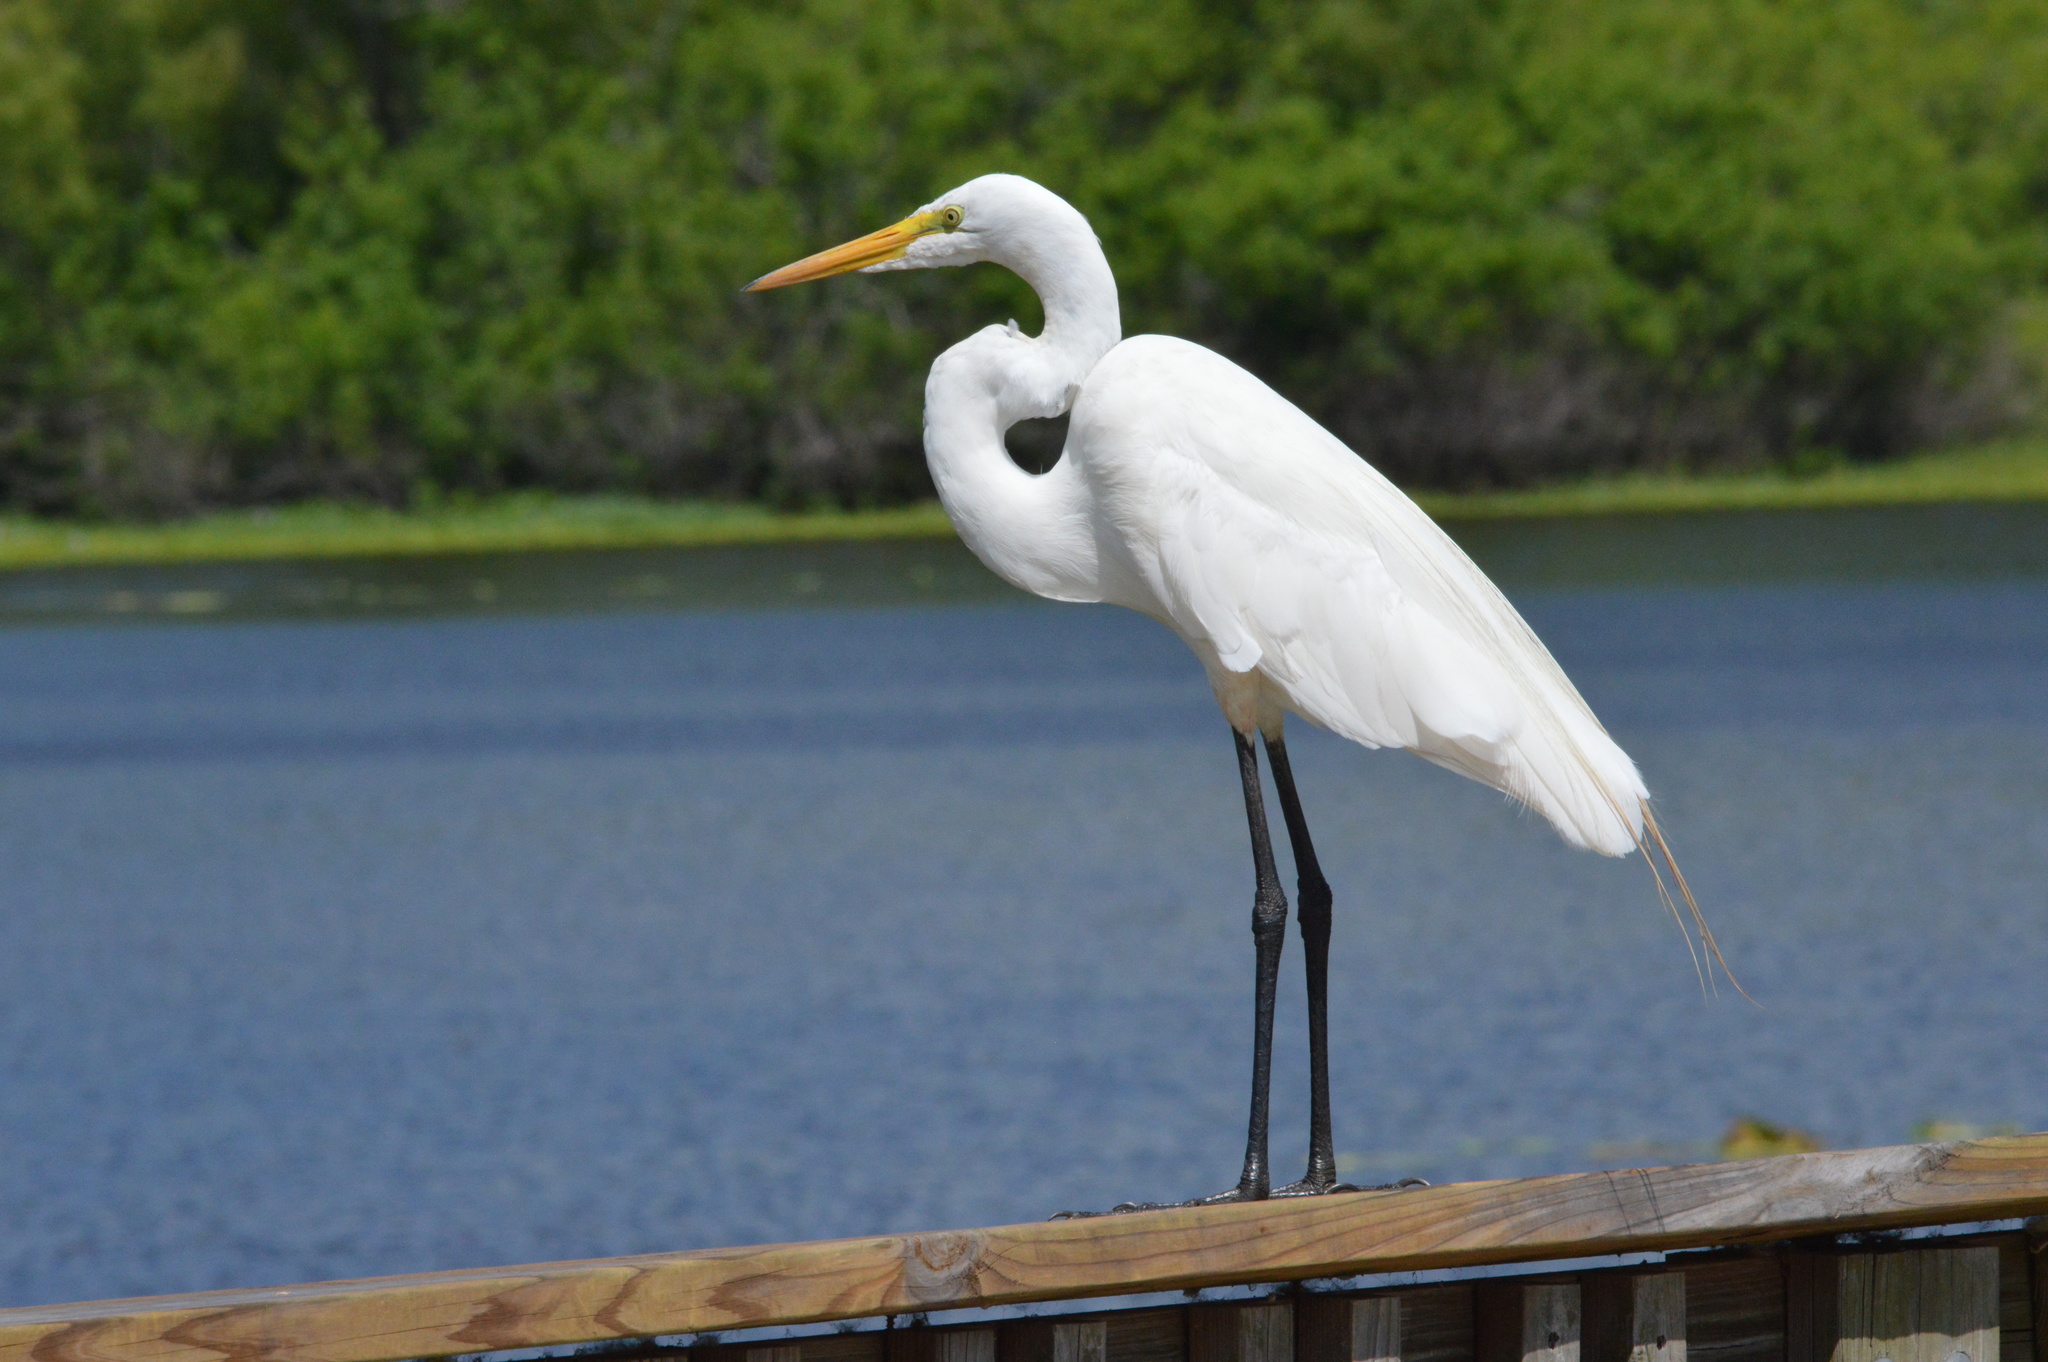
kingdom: Animalia
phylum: Chordata
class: Aves
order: Pelecaniformes
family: Ardeidae
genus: Ardea
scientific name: Ardea alba
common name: Great egret
